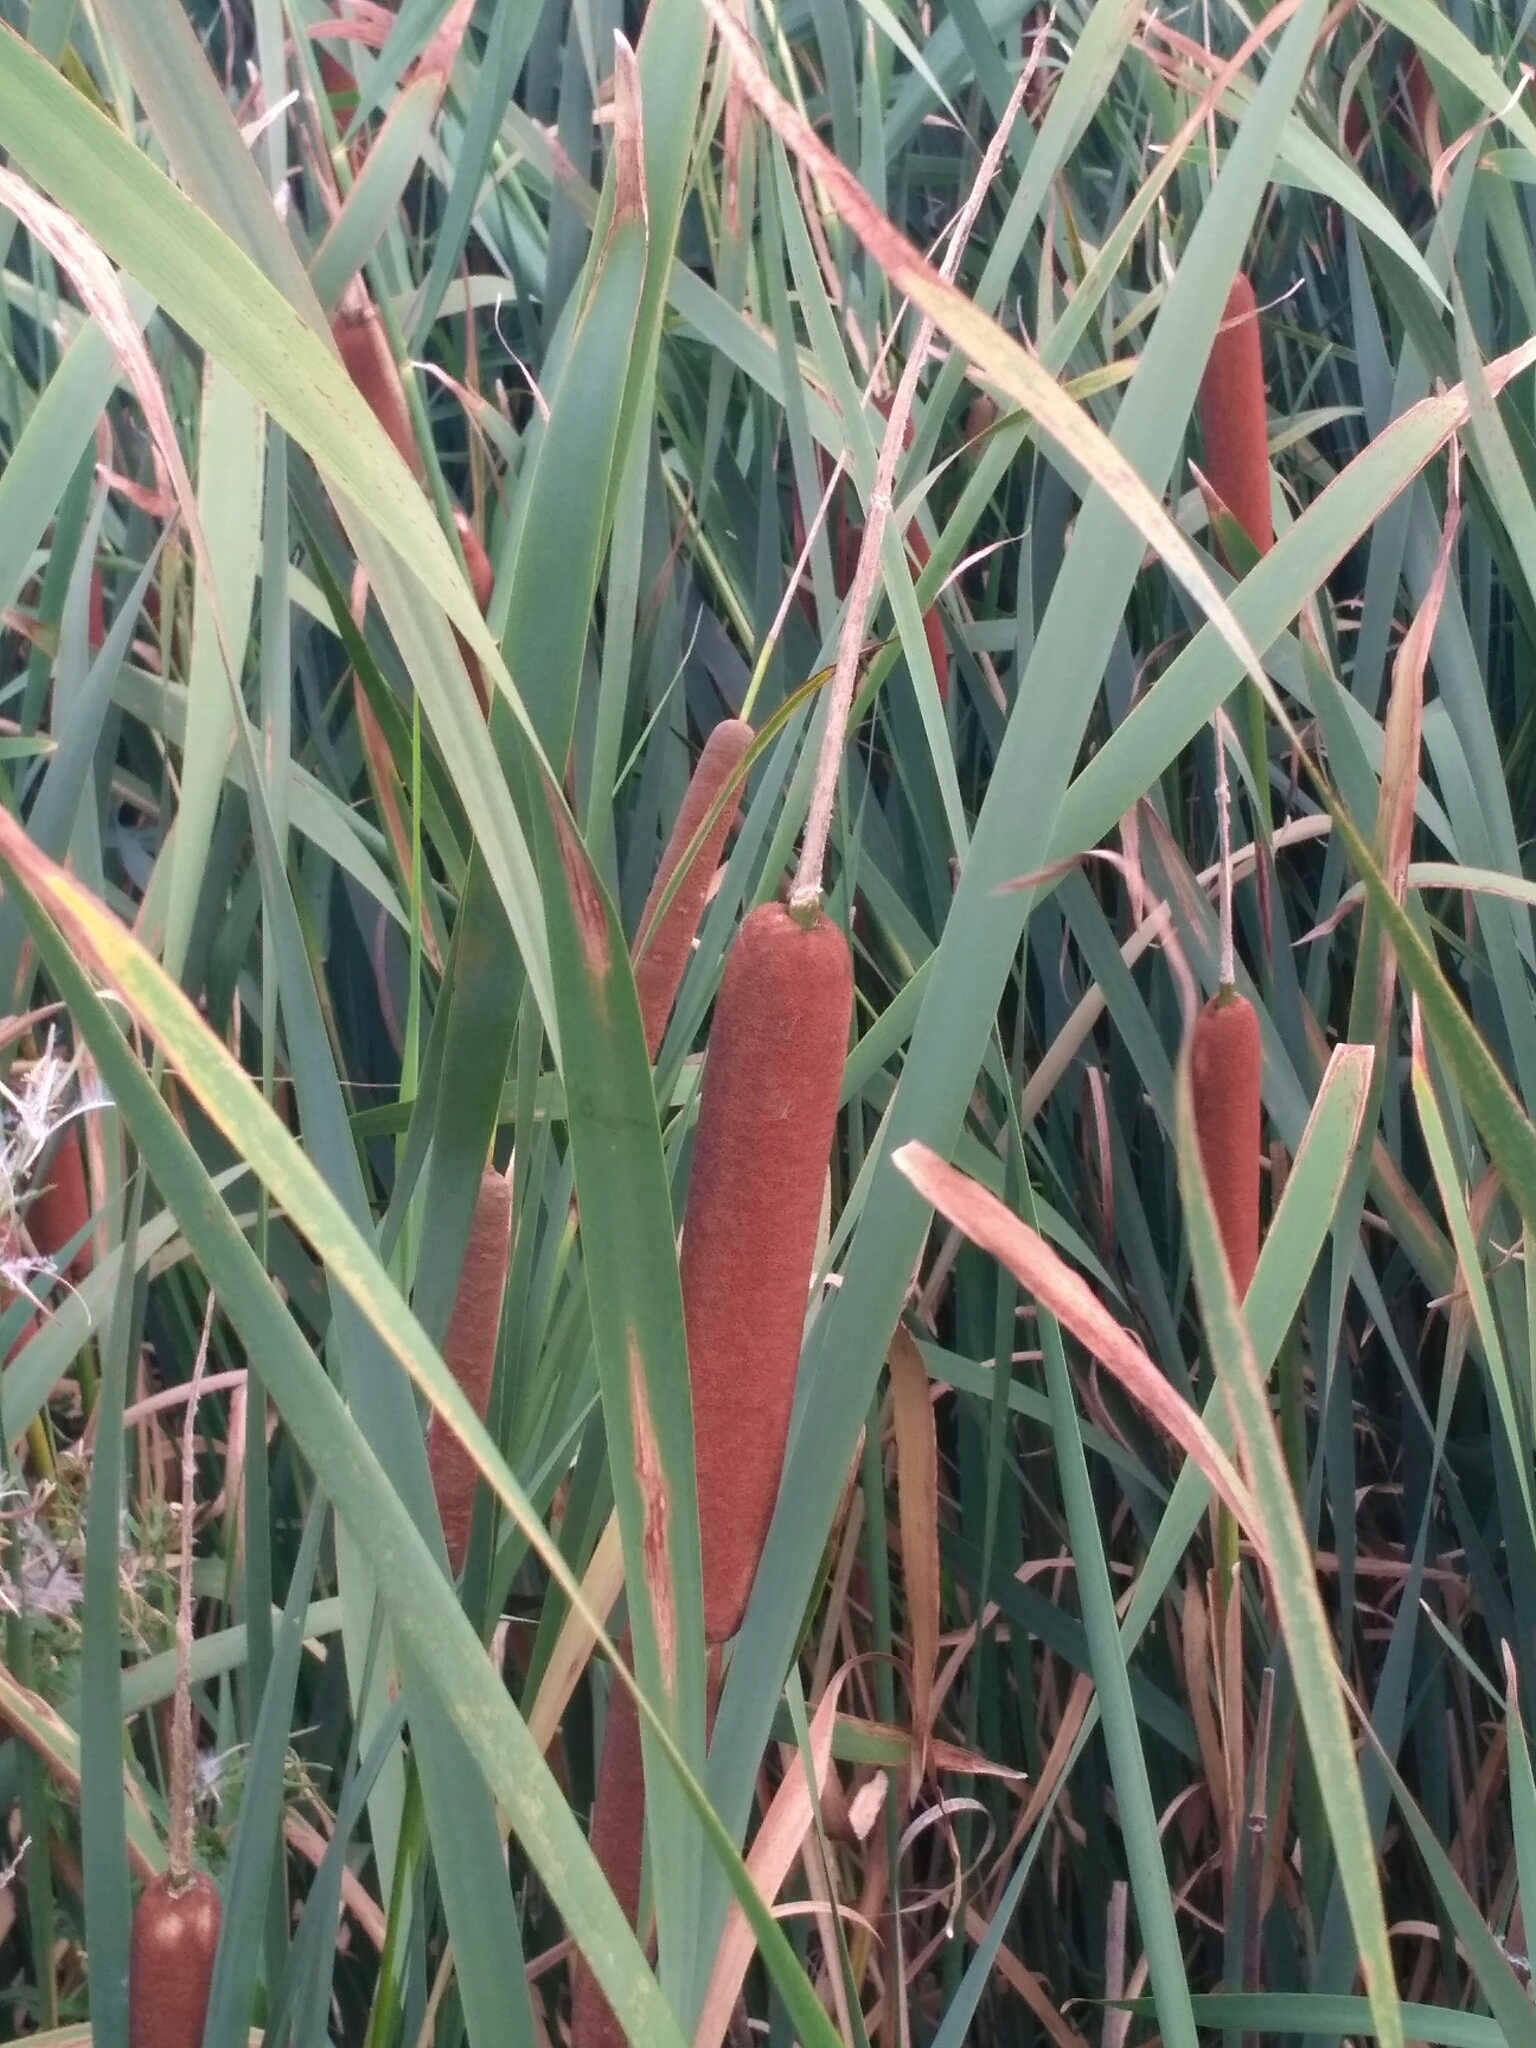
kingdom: Plantae
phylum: Tracheophyta
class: Liliopsida
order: Poales
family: Typhaceae
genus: Typha
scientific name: Typha latifolia
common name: Broadleaf cattail
